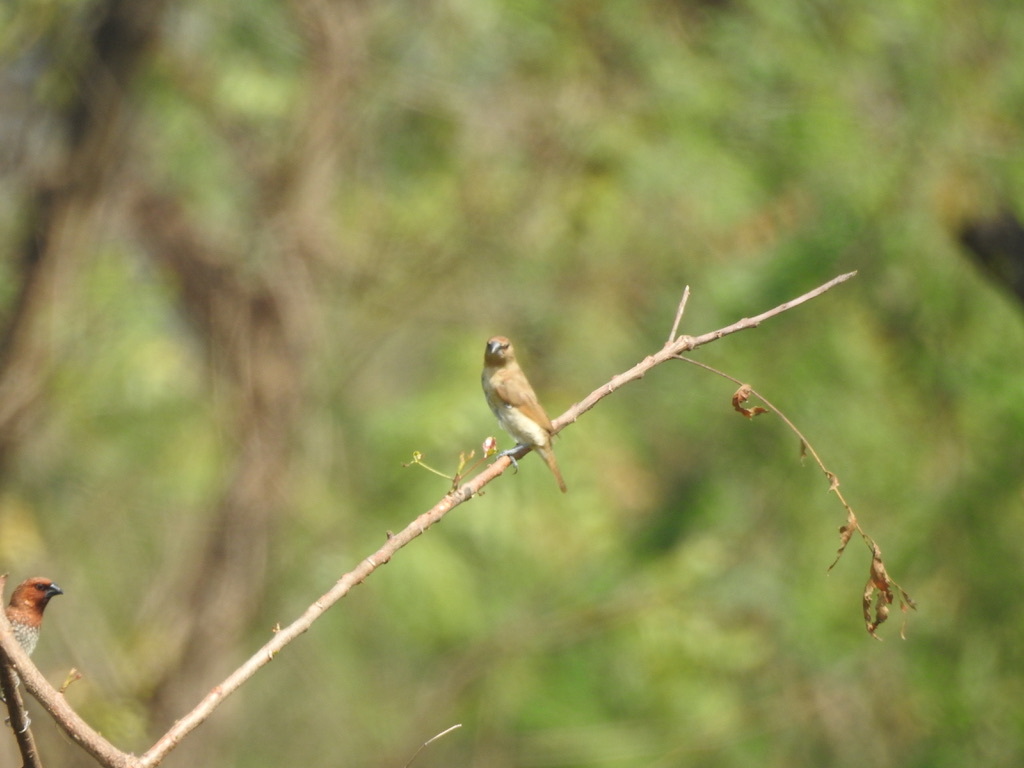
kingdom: Animalia
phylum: Chordata
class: Aves
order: Passeriformes
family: Estrildidae
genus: Lonchura
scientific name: Lonchura punctulata
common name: Scaly-breasted munia
